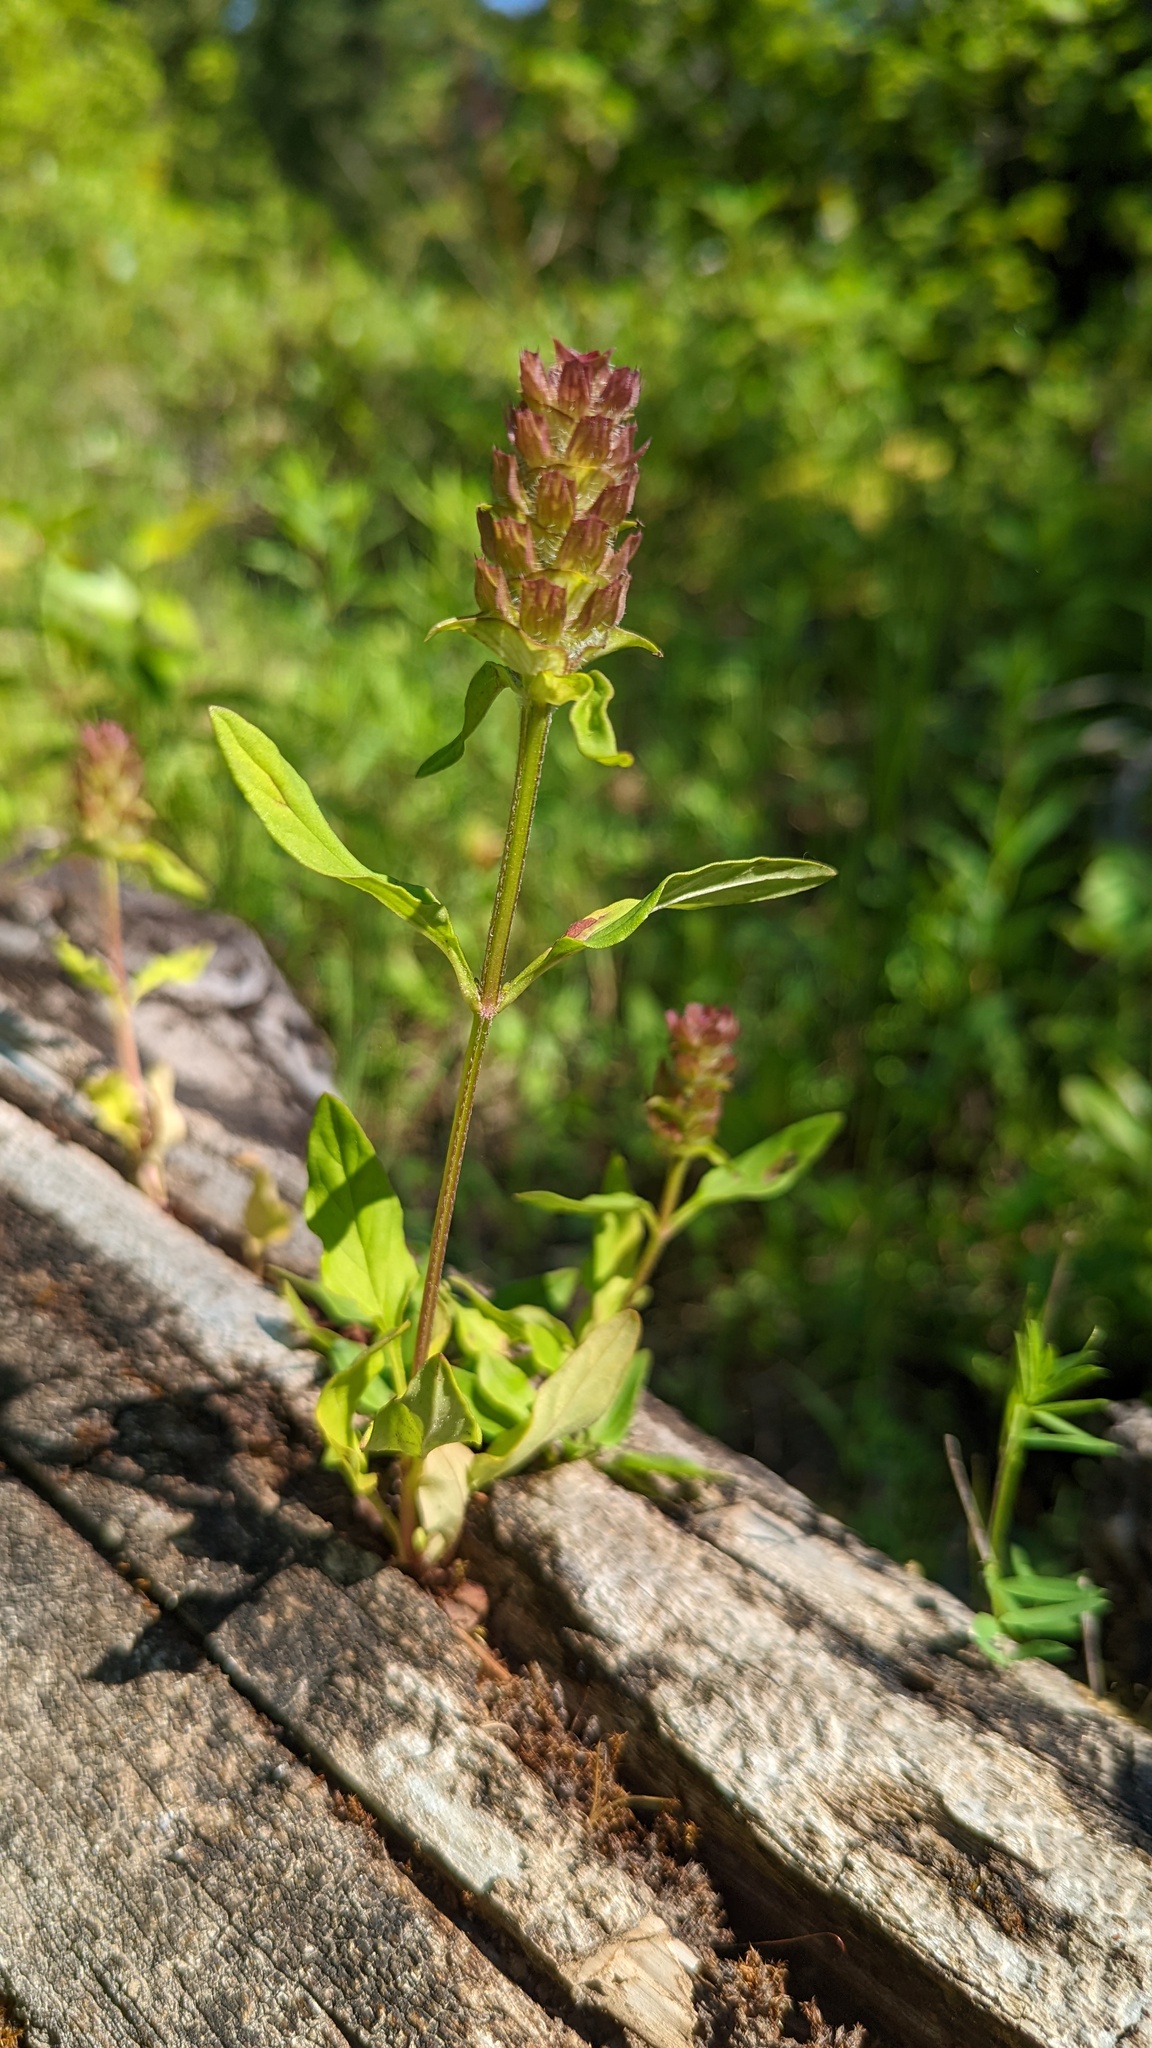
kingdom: Plantae
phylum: Tracheophyta
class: Magnoliopsida
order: Lamiales
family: Lamiaceae
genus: Prunella
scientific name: Prunella vulgaris
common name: Heal-all
